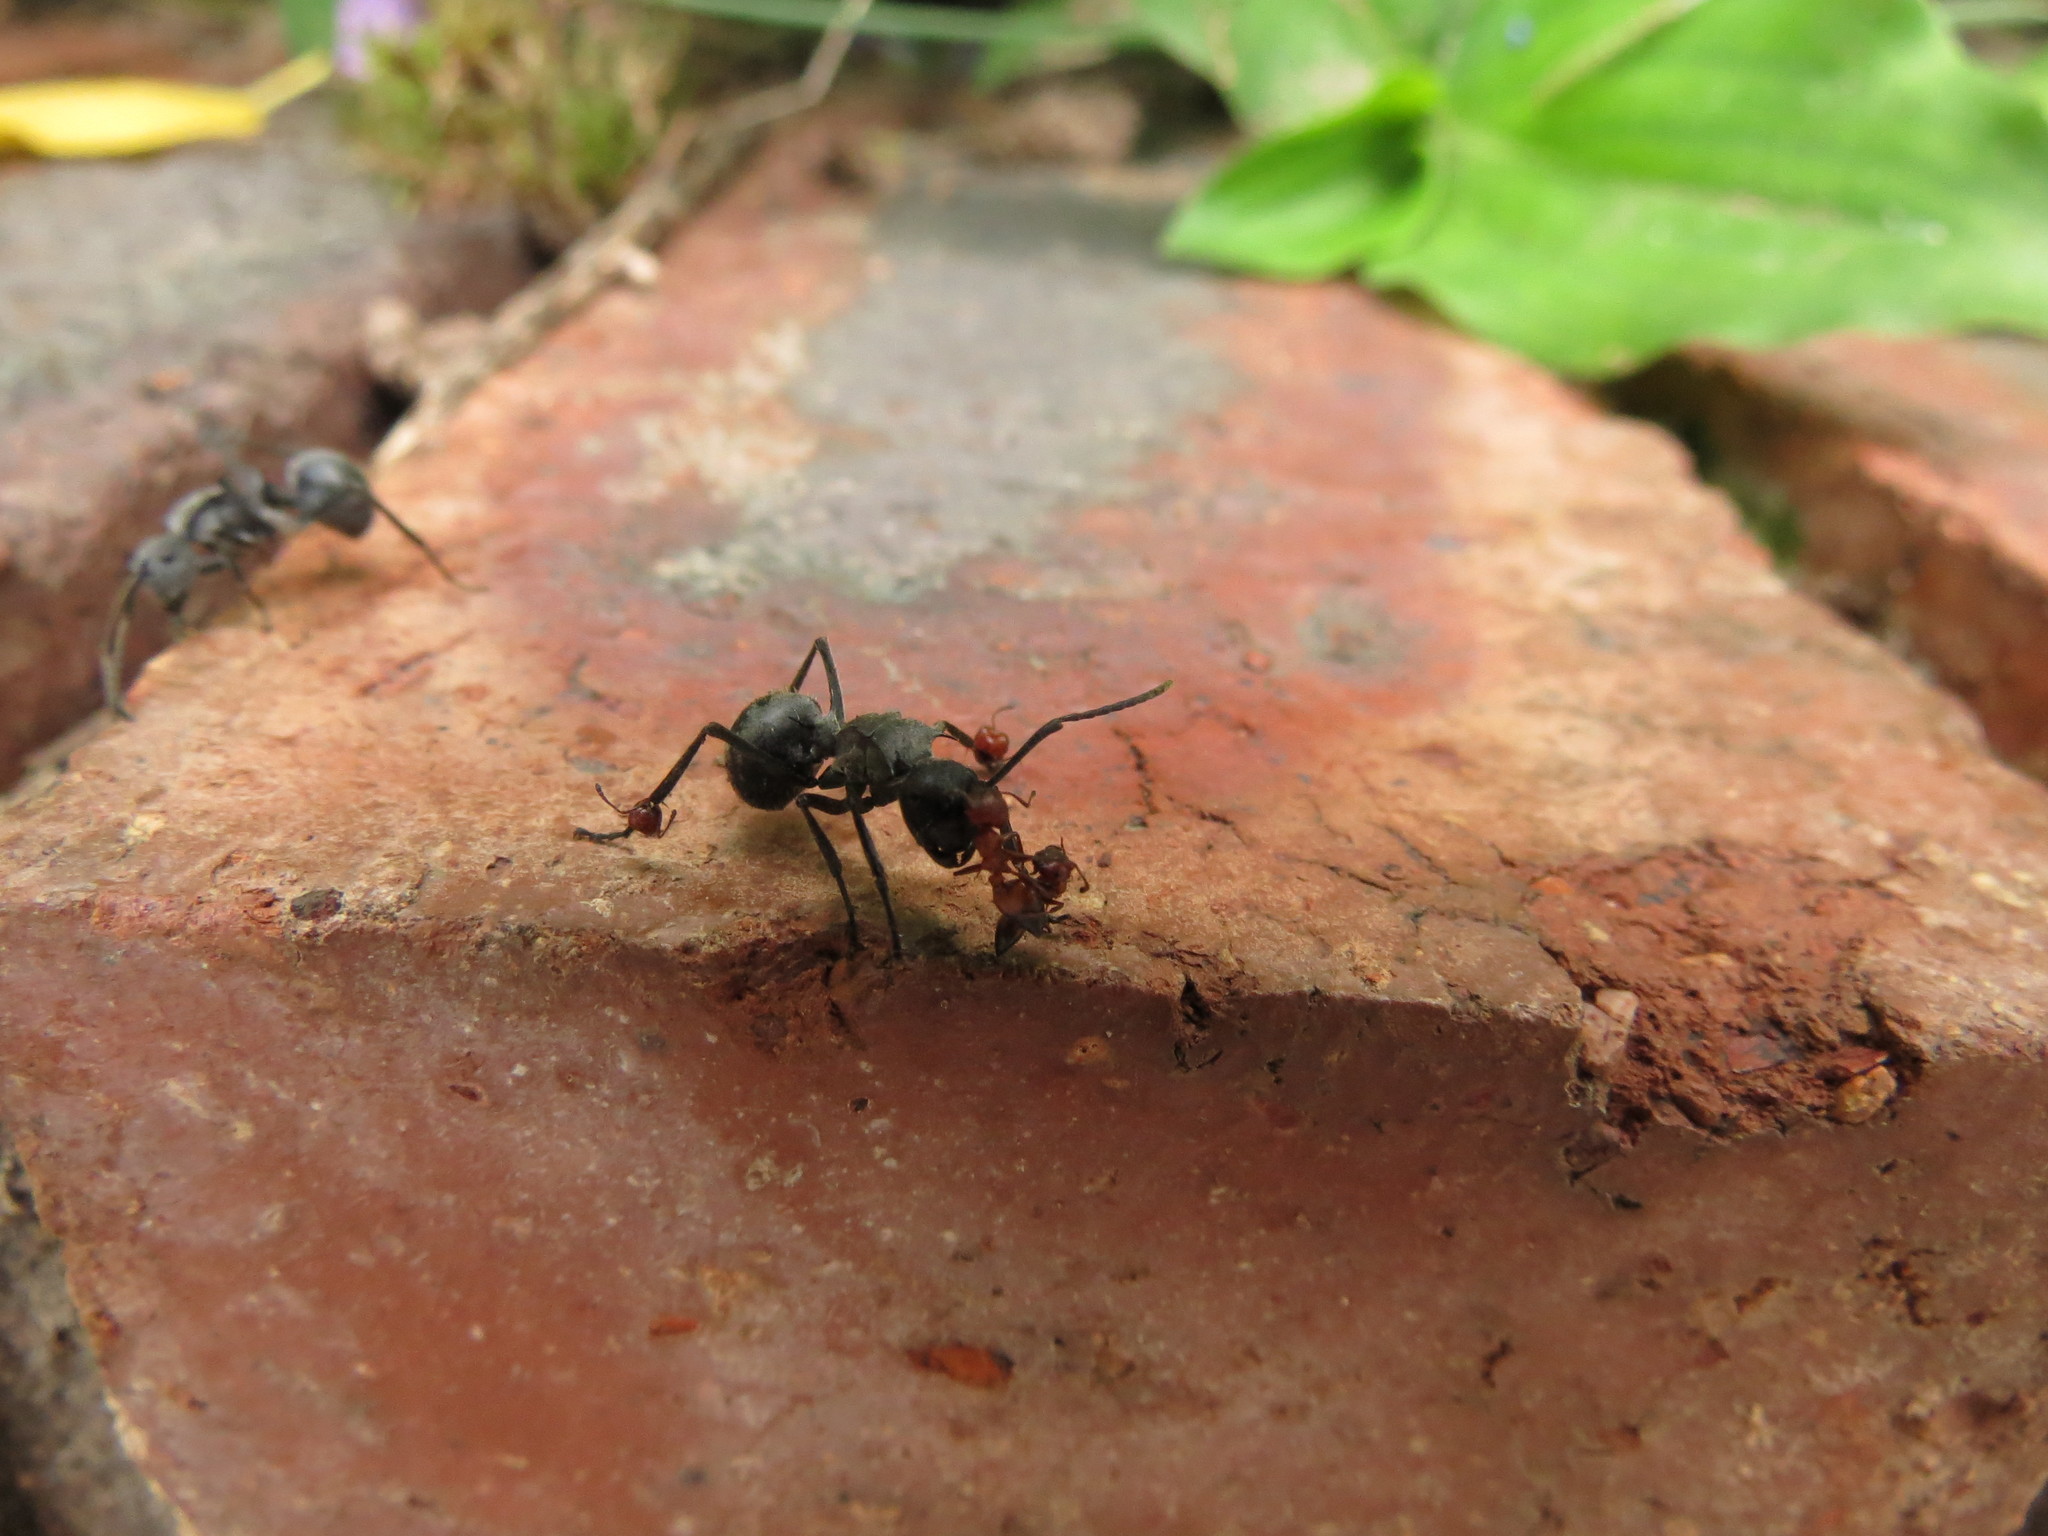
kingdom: Animalia
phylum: Arthropoda
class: Insecta
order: Hymenoptera
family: Formicidae
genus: Polyrhachis
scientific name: Polyrhachis schistacea
